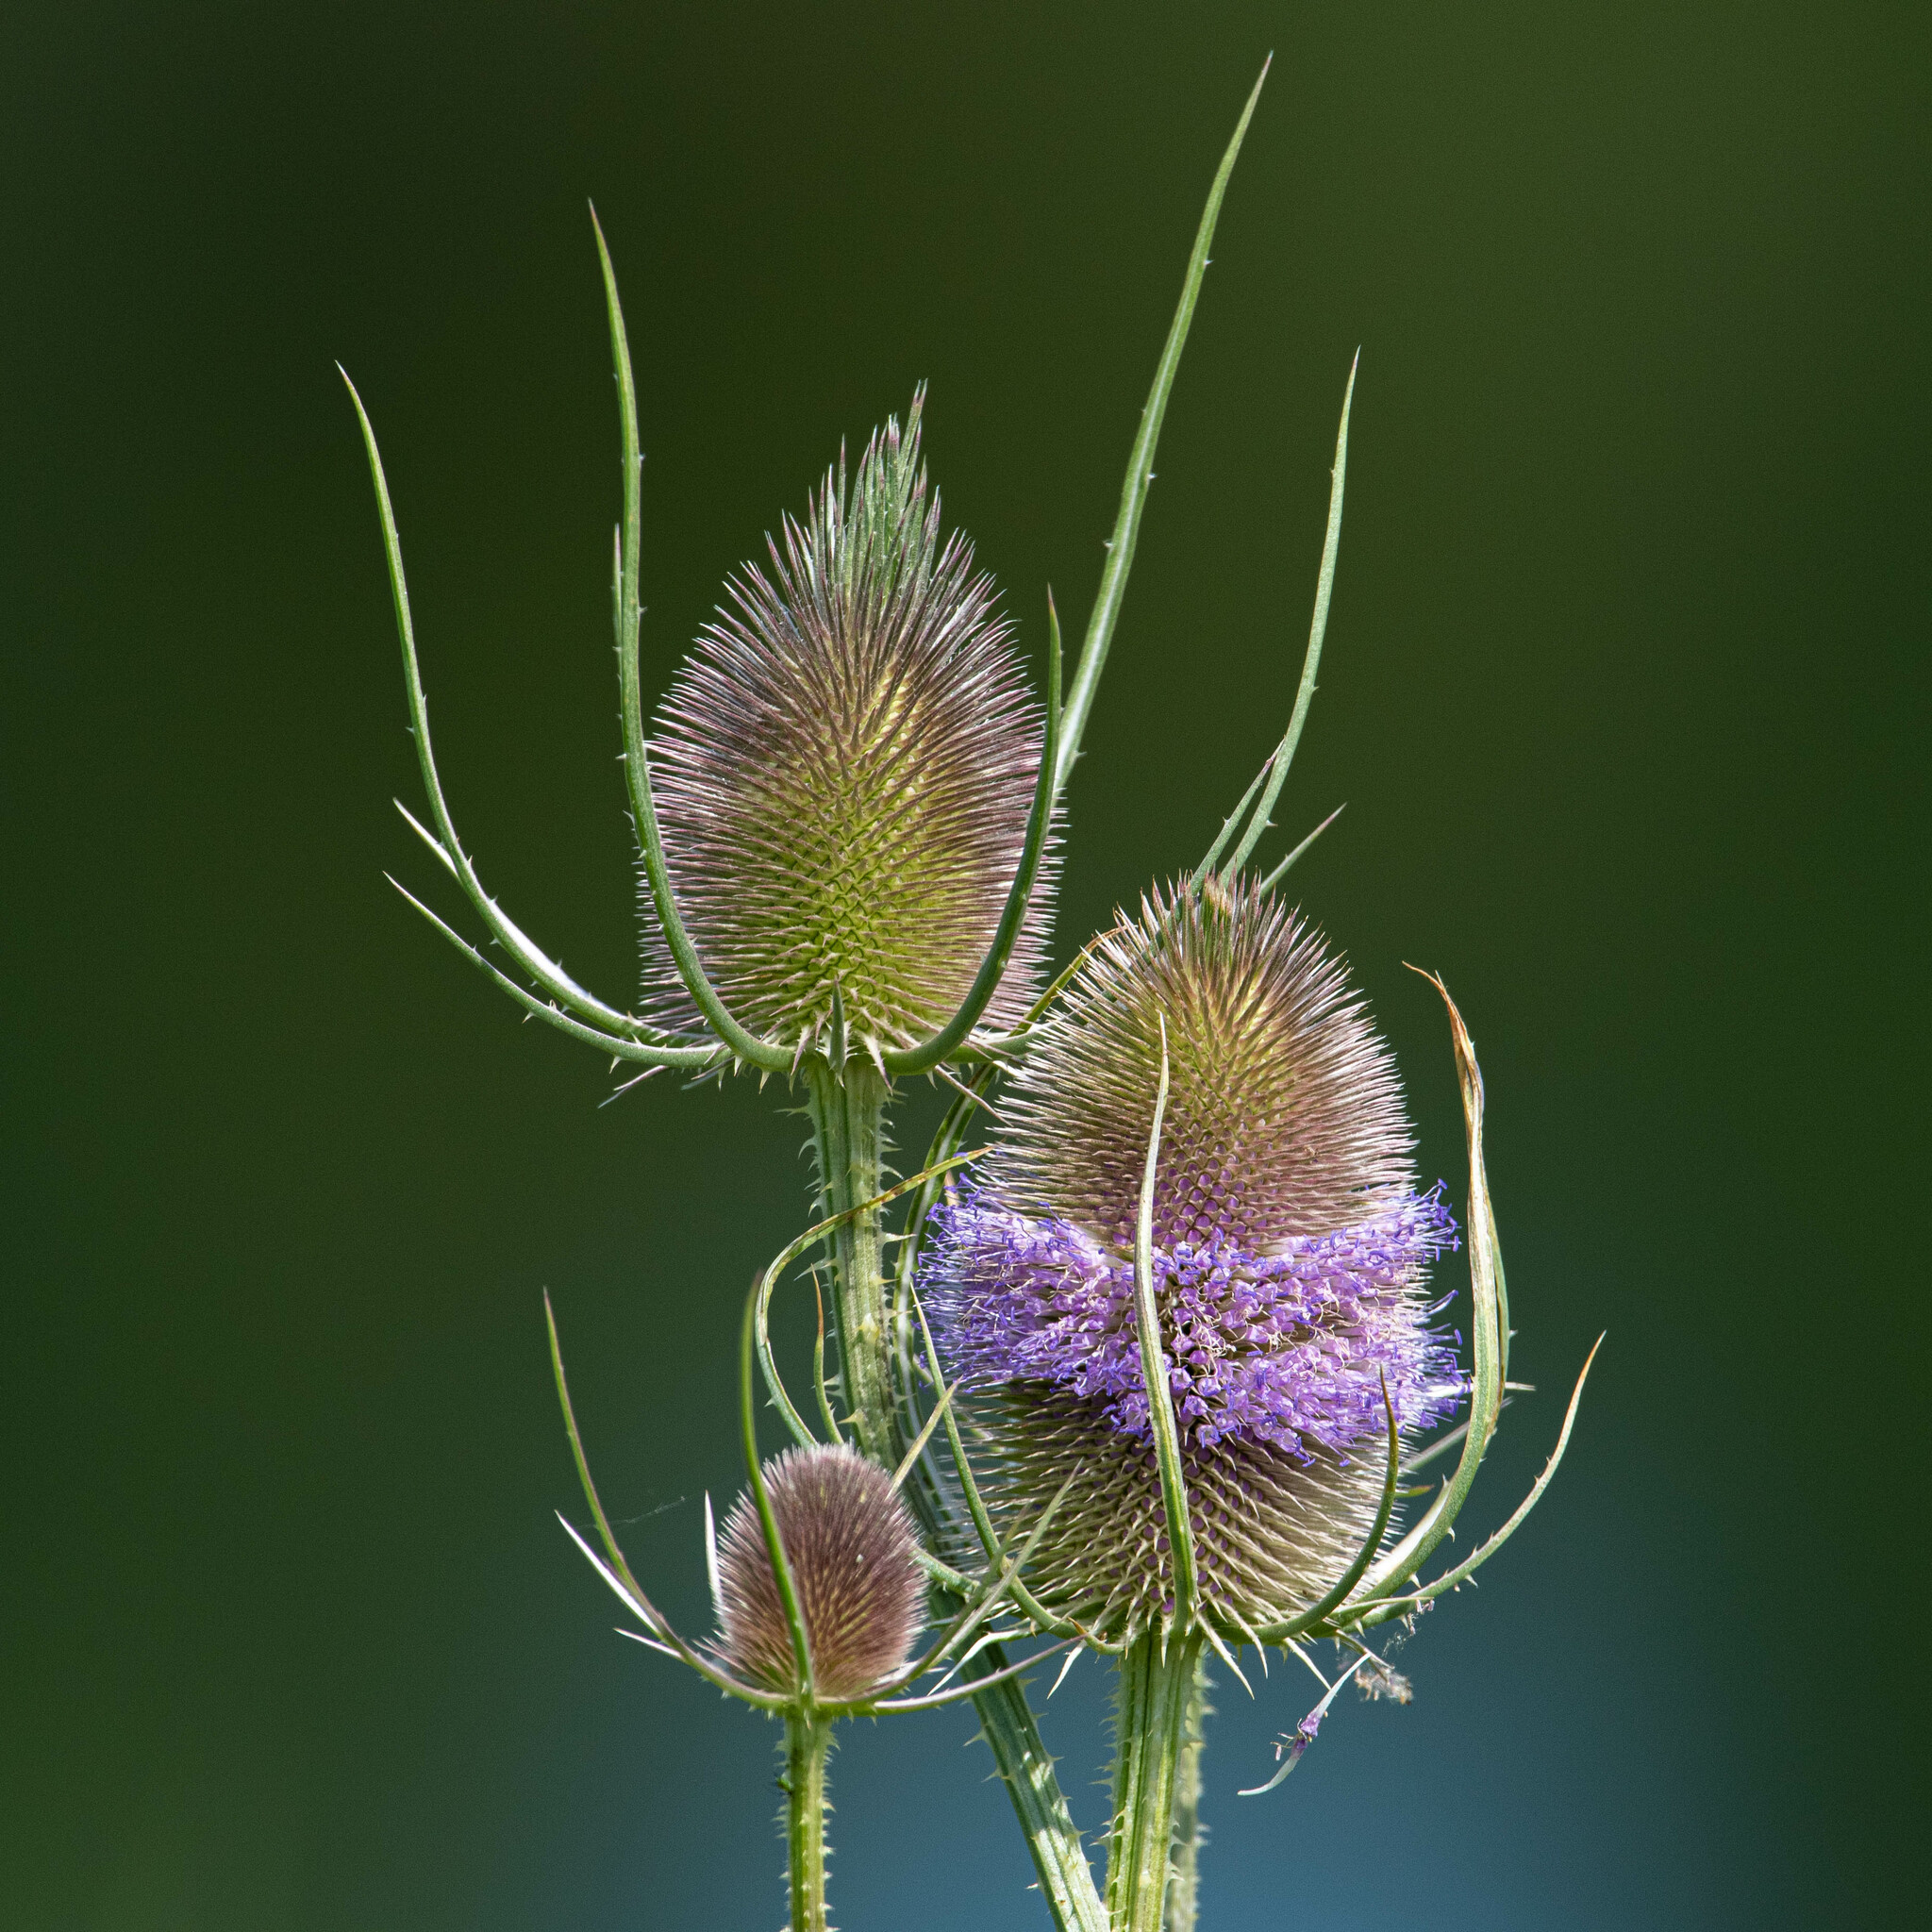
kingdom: Plantae
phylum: Tracheophyta
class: Magnoliopsida
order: Dipsacales
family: Caprifoliaceae
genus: Dipsacus
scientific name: Dipsacus fullonum
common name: Teasel
